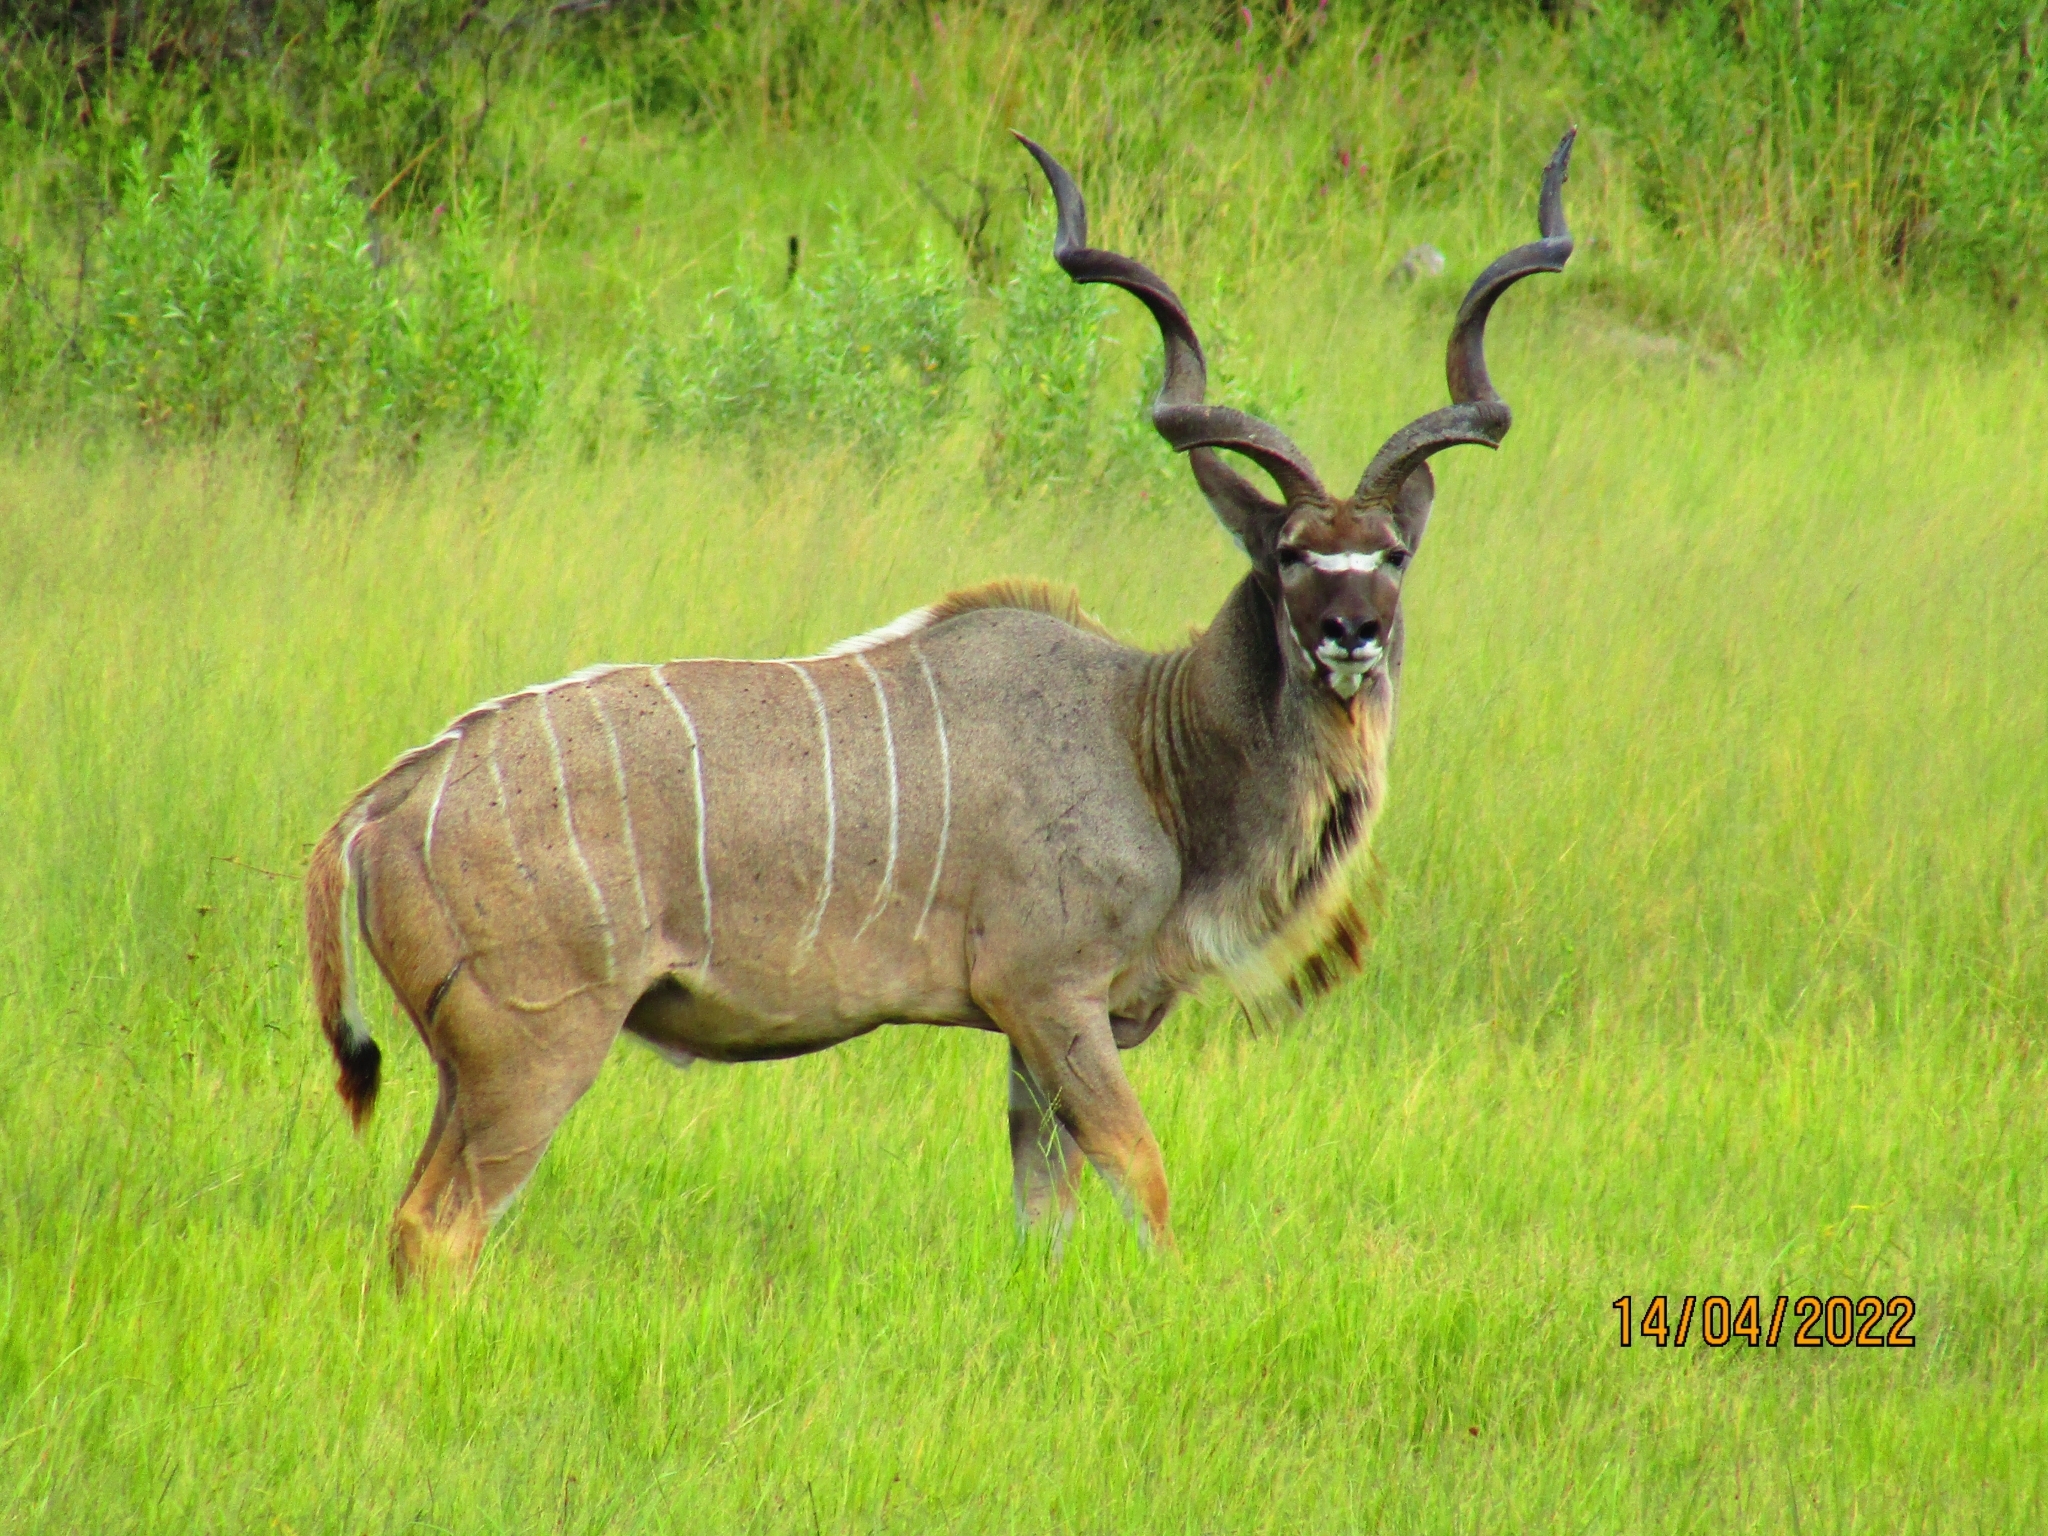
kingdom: Animalia
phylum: Chordata
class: Mammalia
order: Artiodactyla
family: Bovidae
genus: Tragelaphus
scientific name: Tragelaphus strepsiceros
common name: Greater kudu
